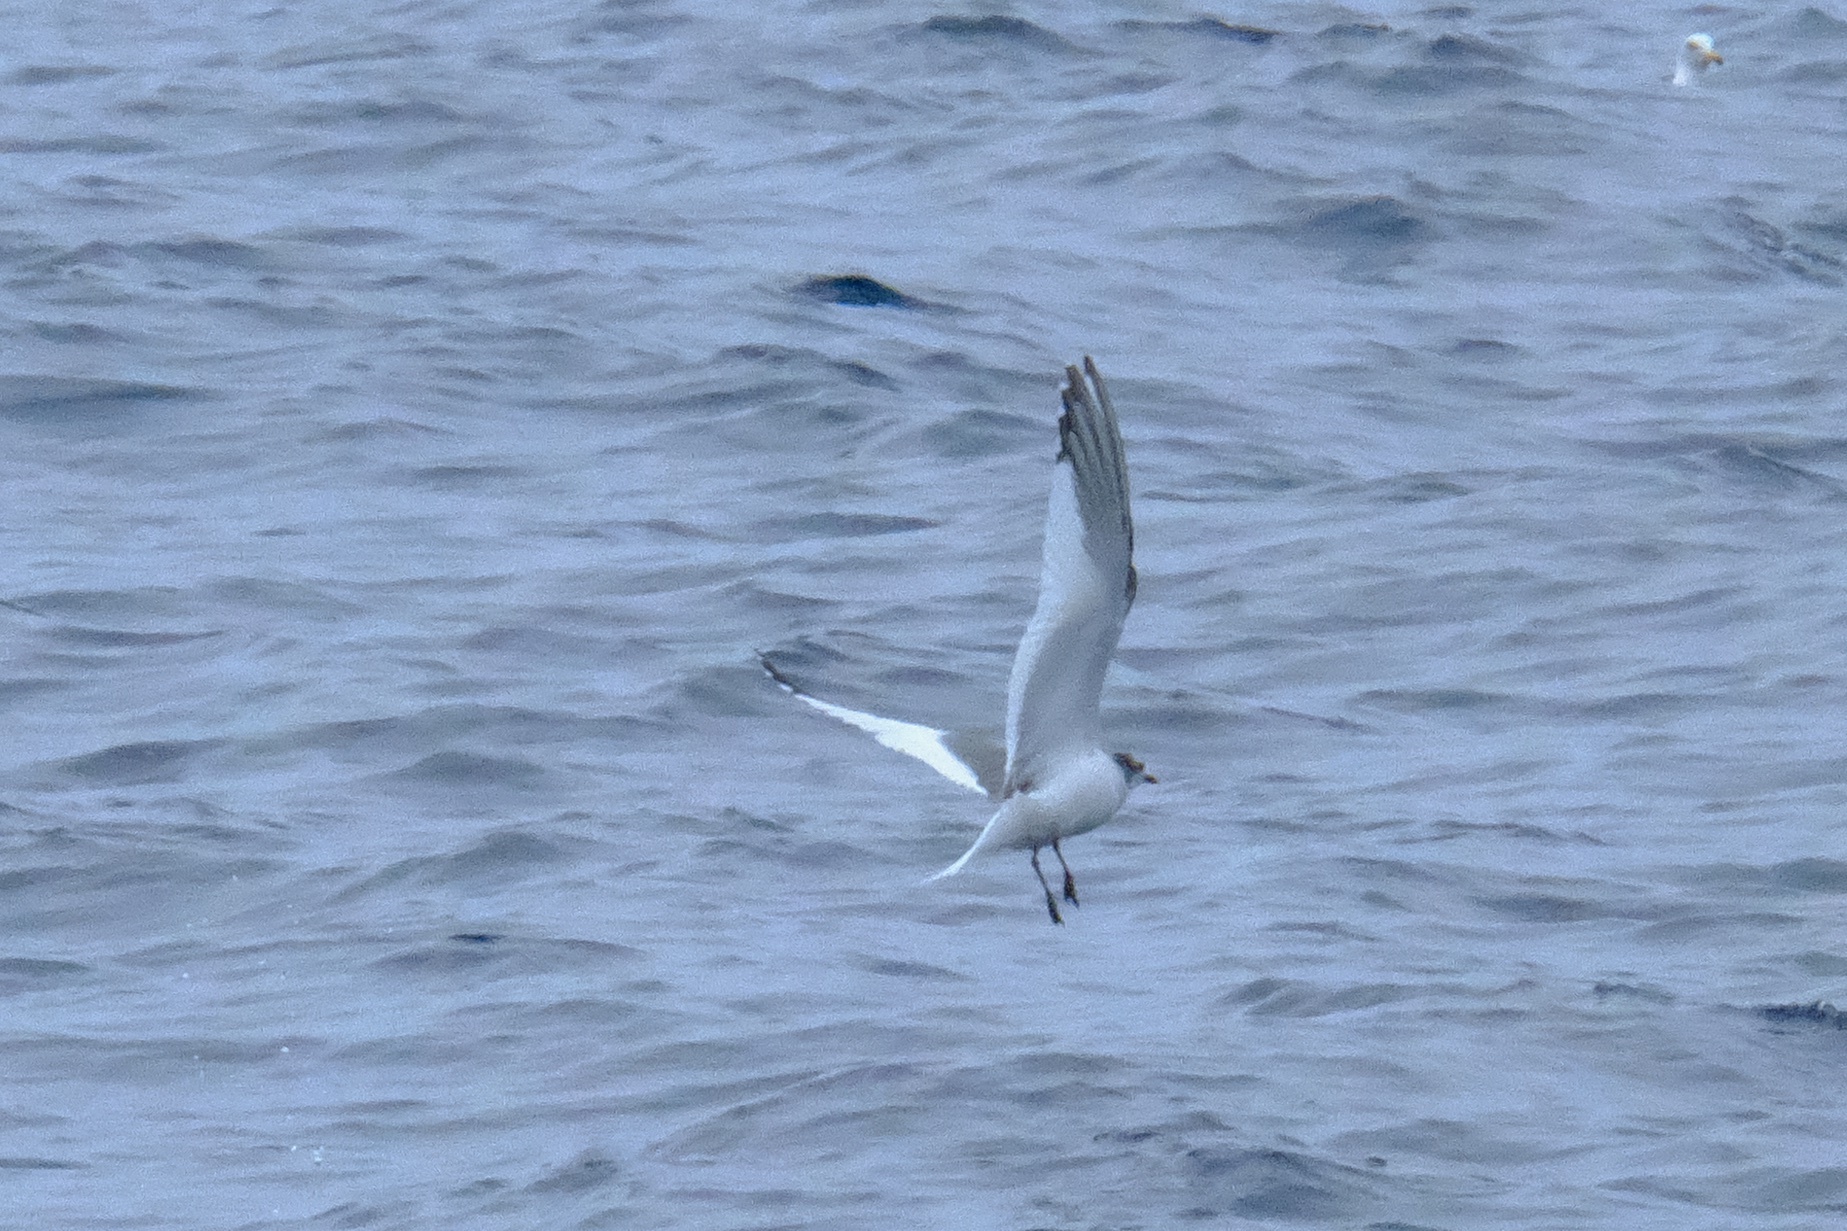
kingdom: Animalia
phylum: Chordata
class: Aves
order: Charadriiformes
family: Laridae
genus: Xema
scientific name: Xema sabini
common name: Sabine's gull
